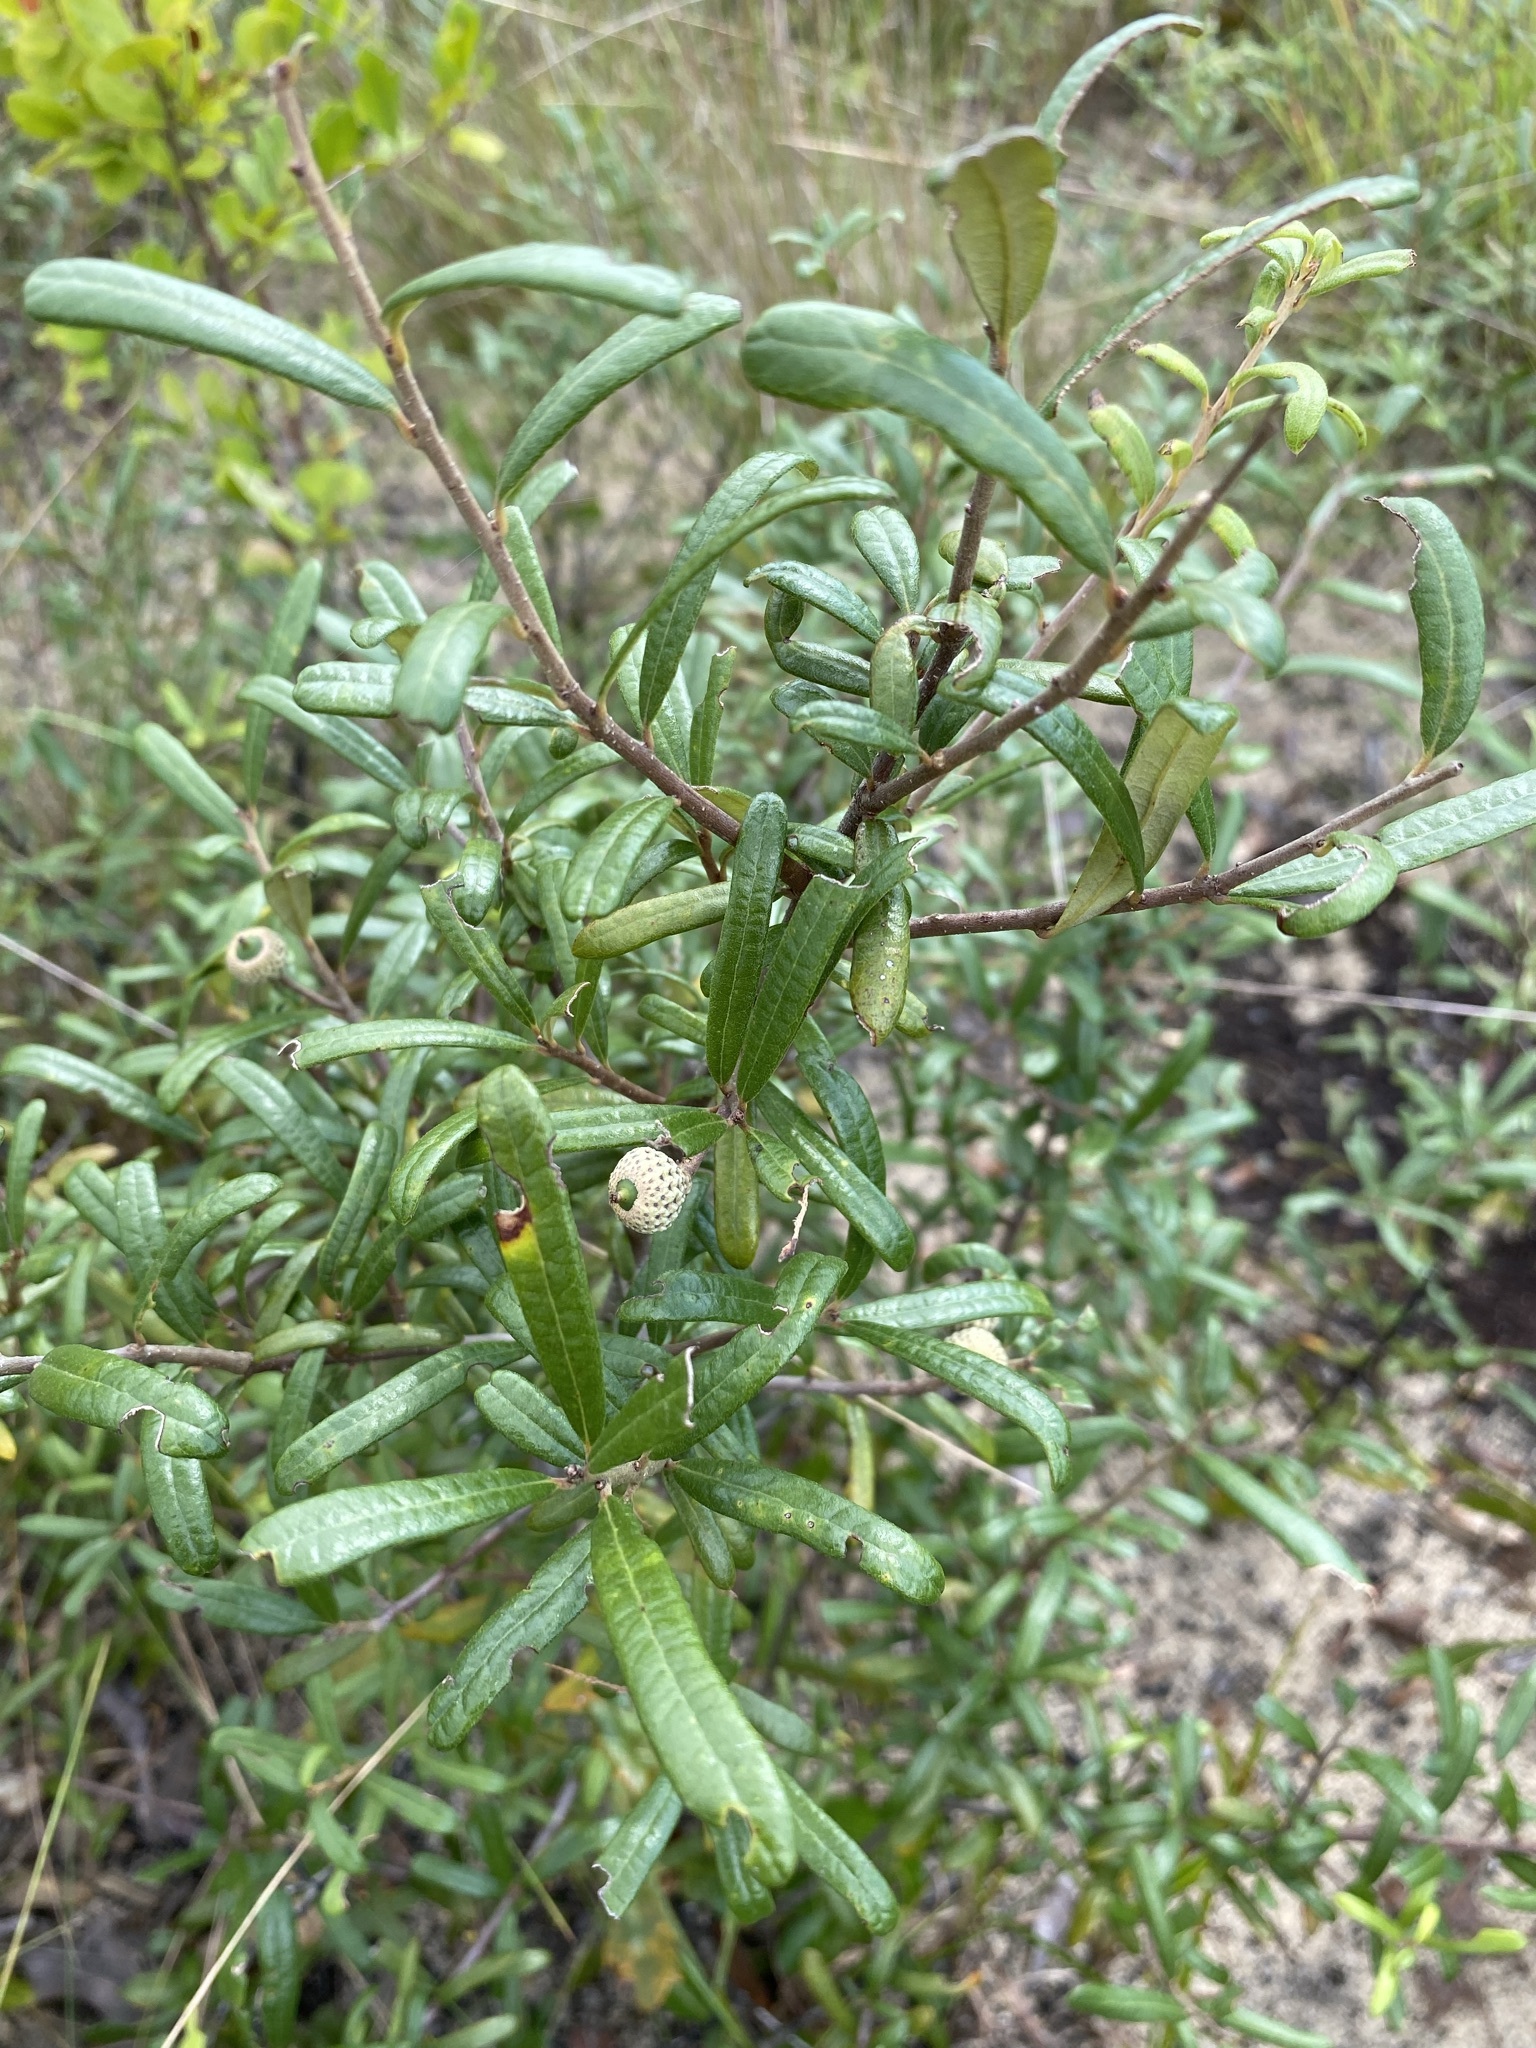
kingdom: Plantae
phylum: Tracheophyta
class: Magnoliopsida
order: Fagales
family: Fagaceae
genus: Quercus
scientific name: Quercus geminata
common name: Sand live oak
